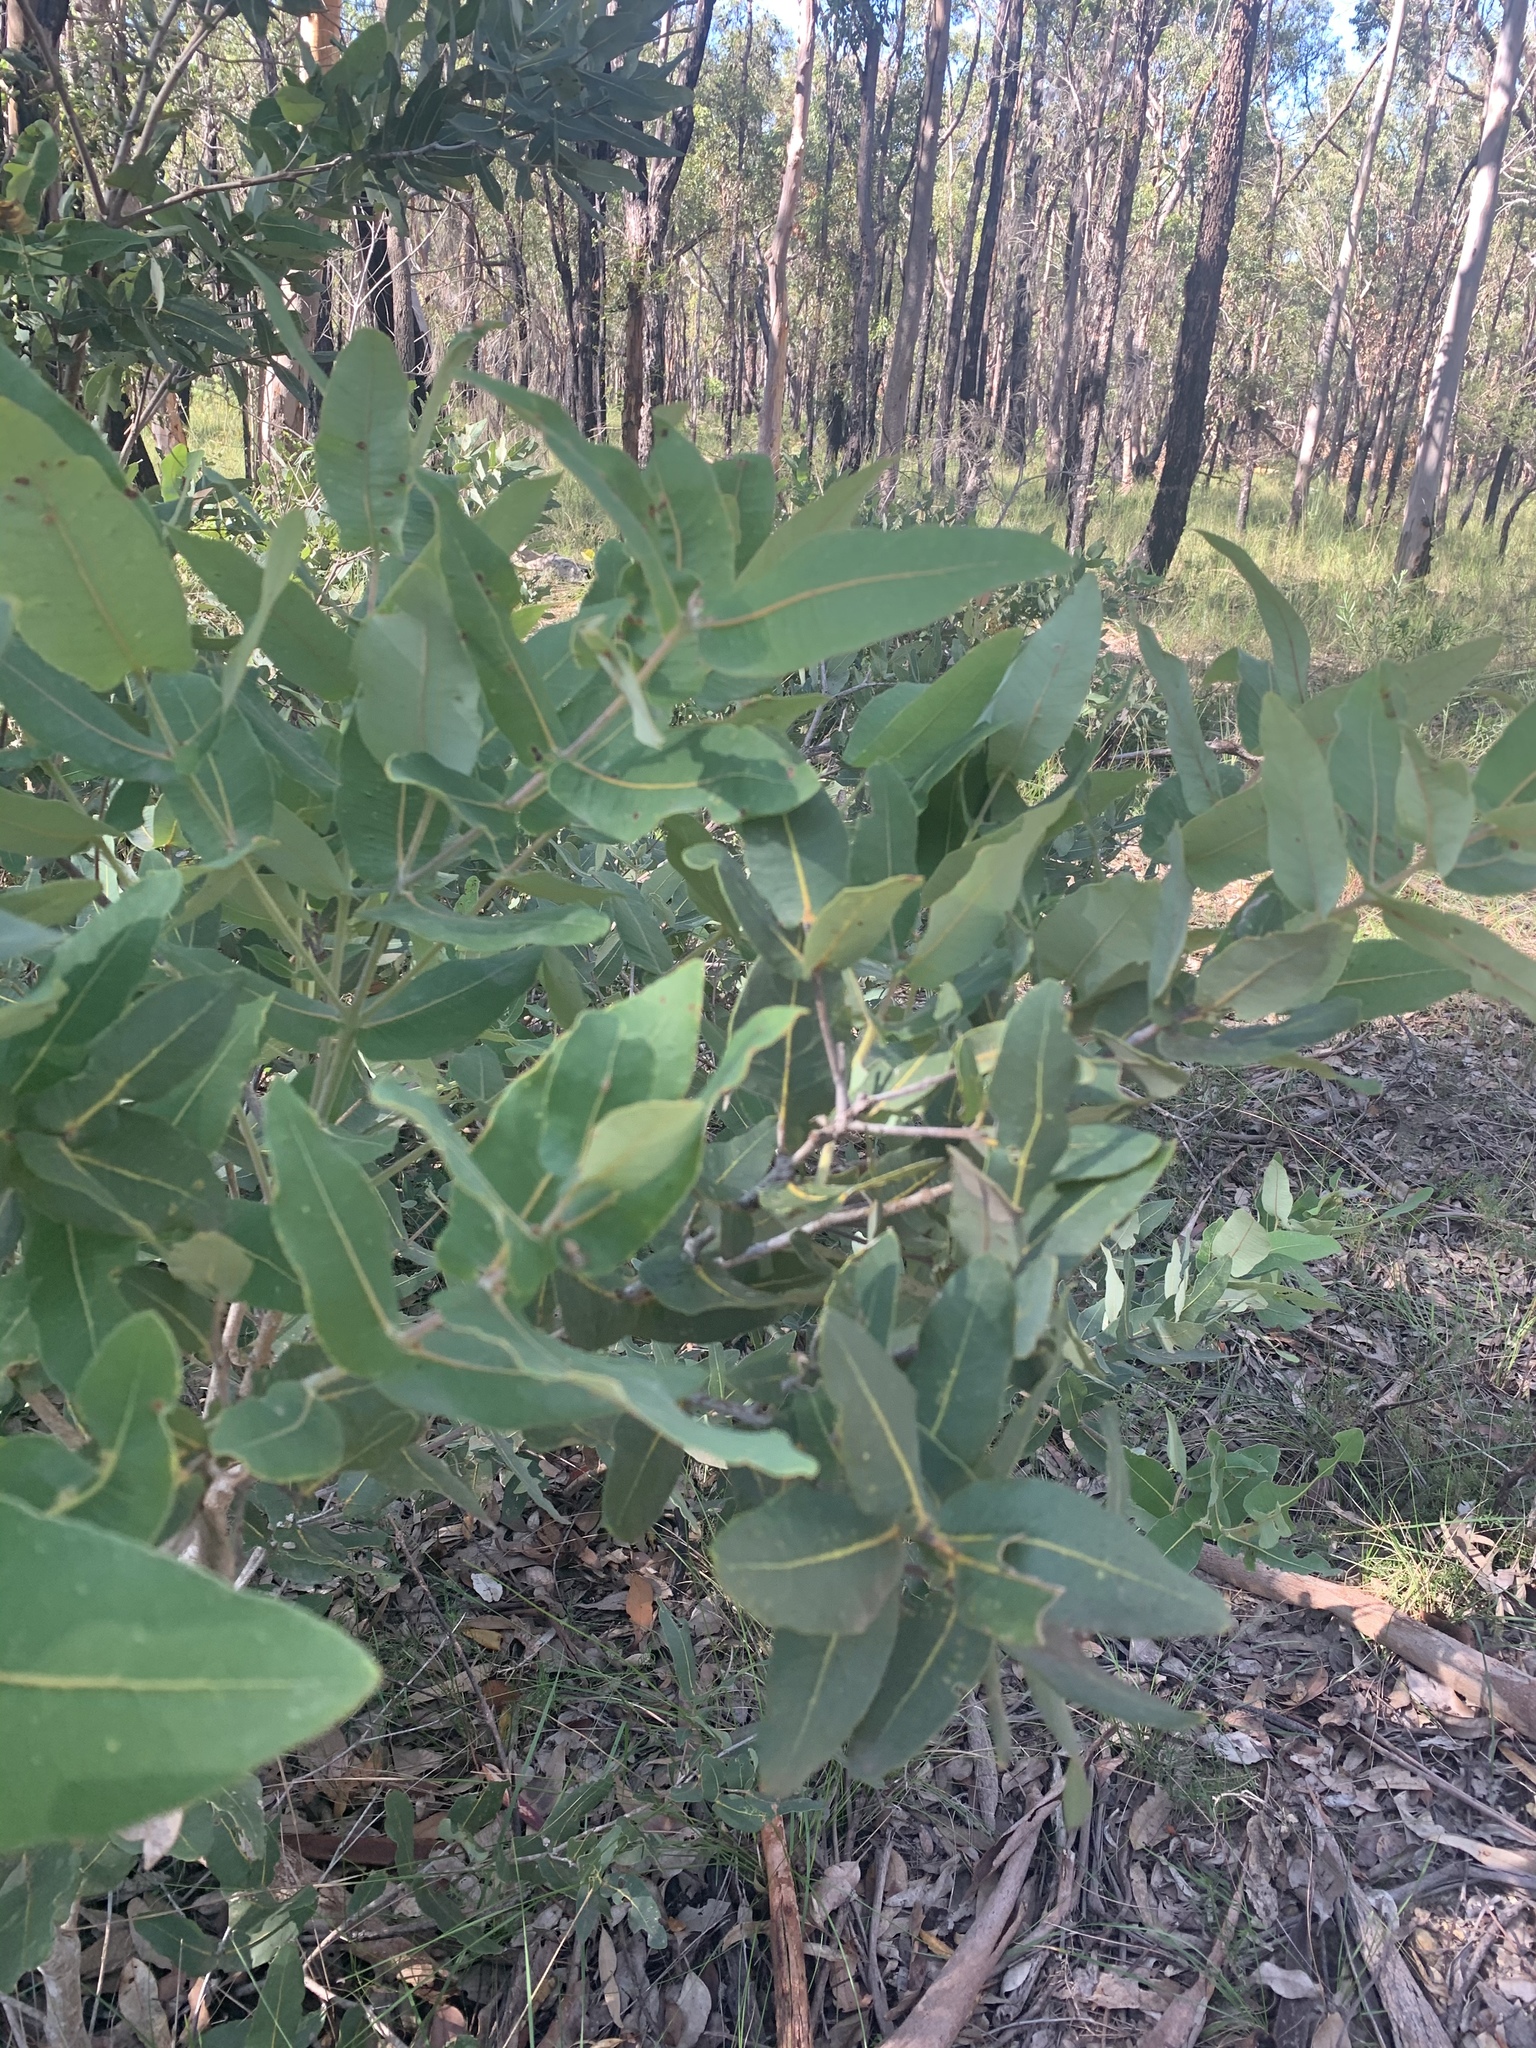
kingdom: Plantae
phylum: Tracheophyta
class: Magnoliopsida
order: Myrtales
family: Myrtaceae
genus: Angophora
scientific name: Angophora hispida
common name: Dwarf-apple
